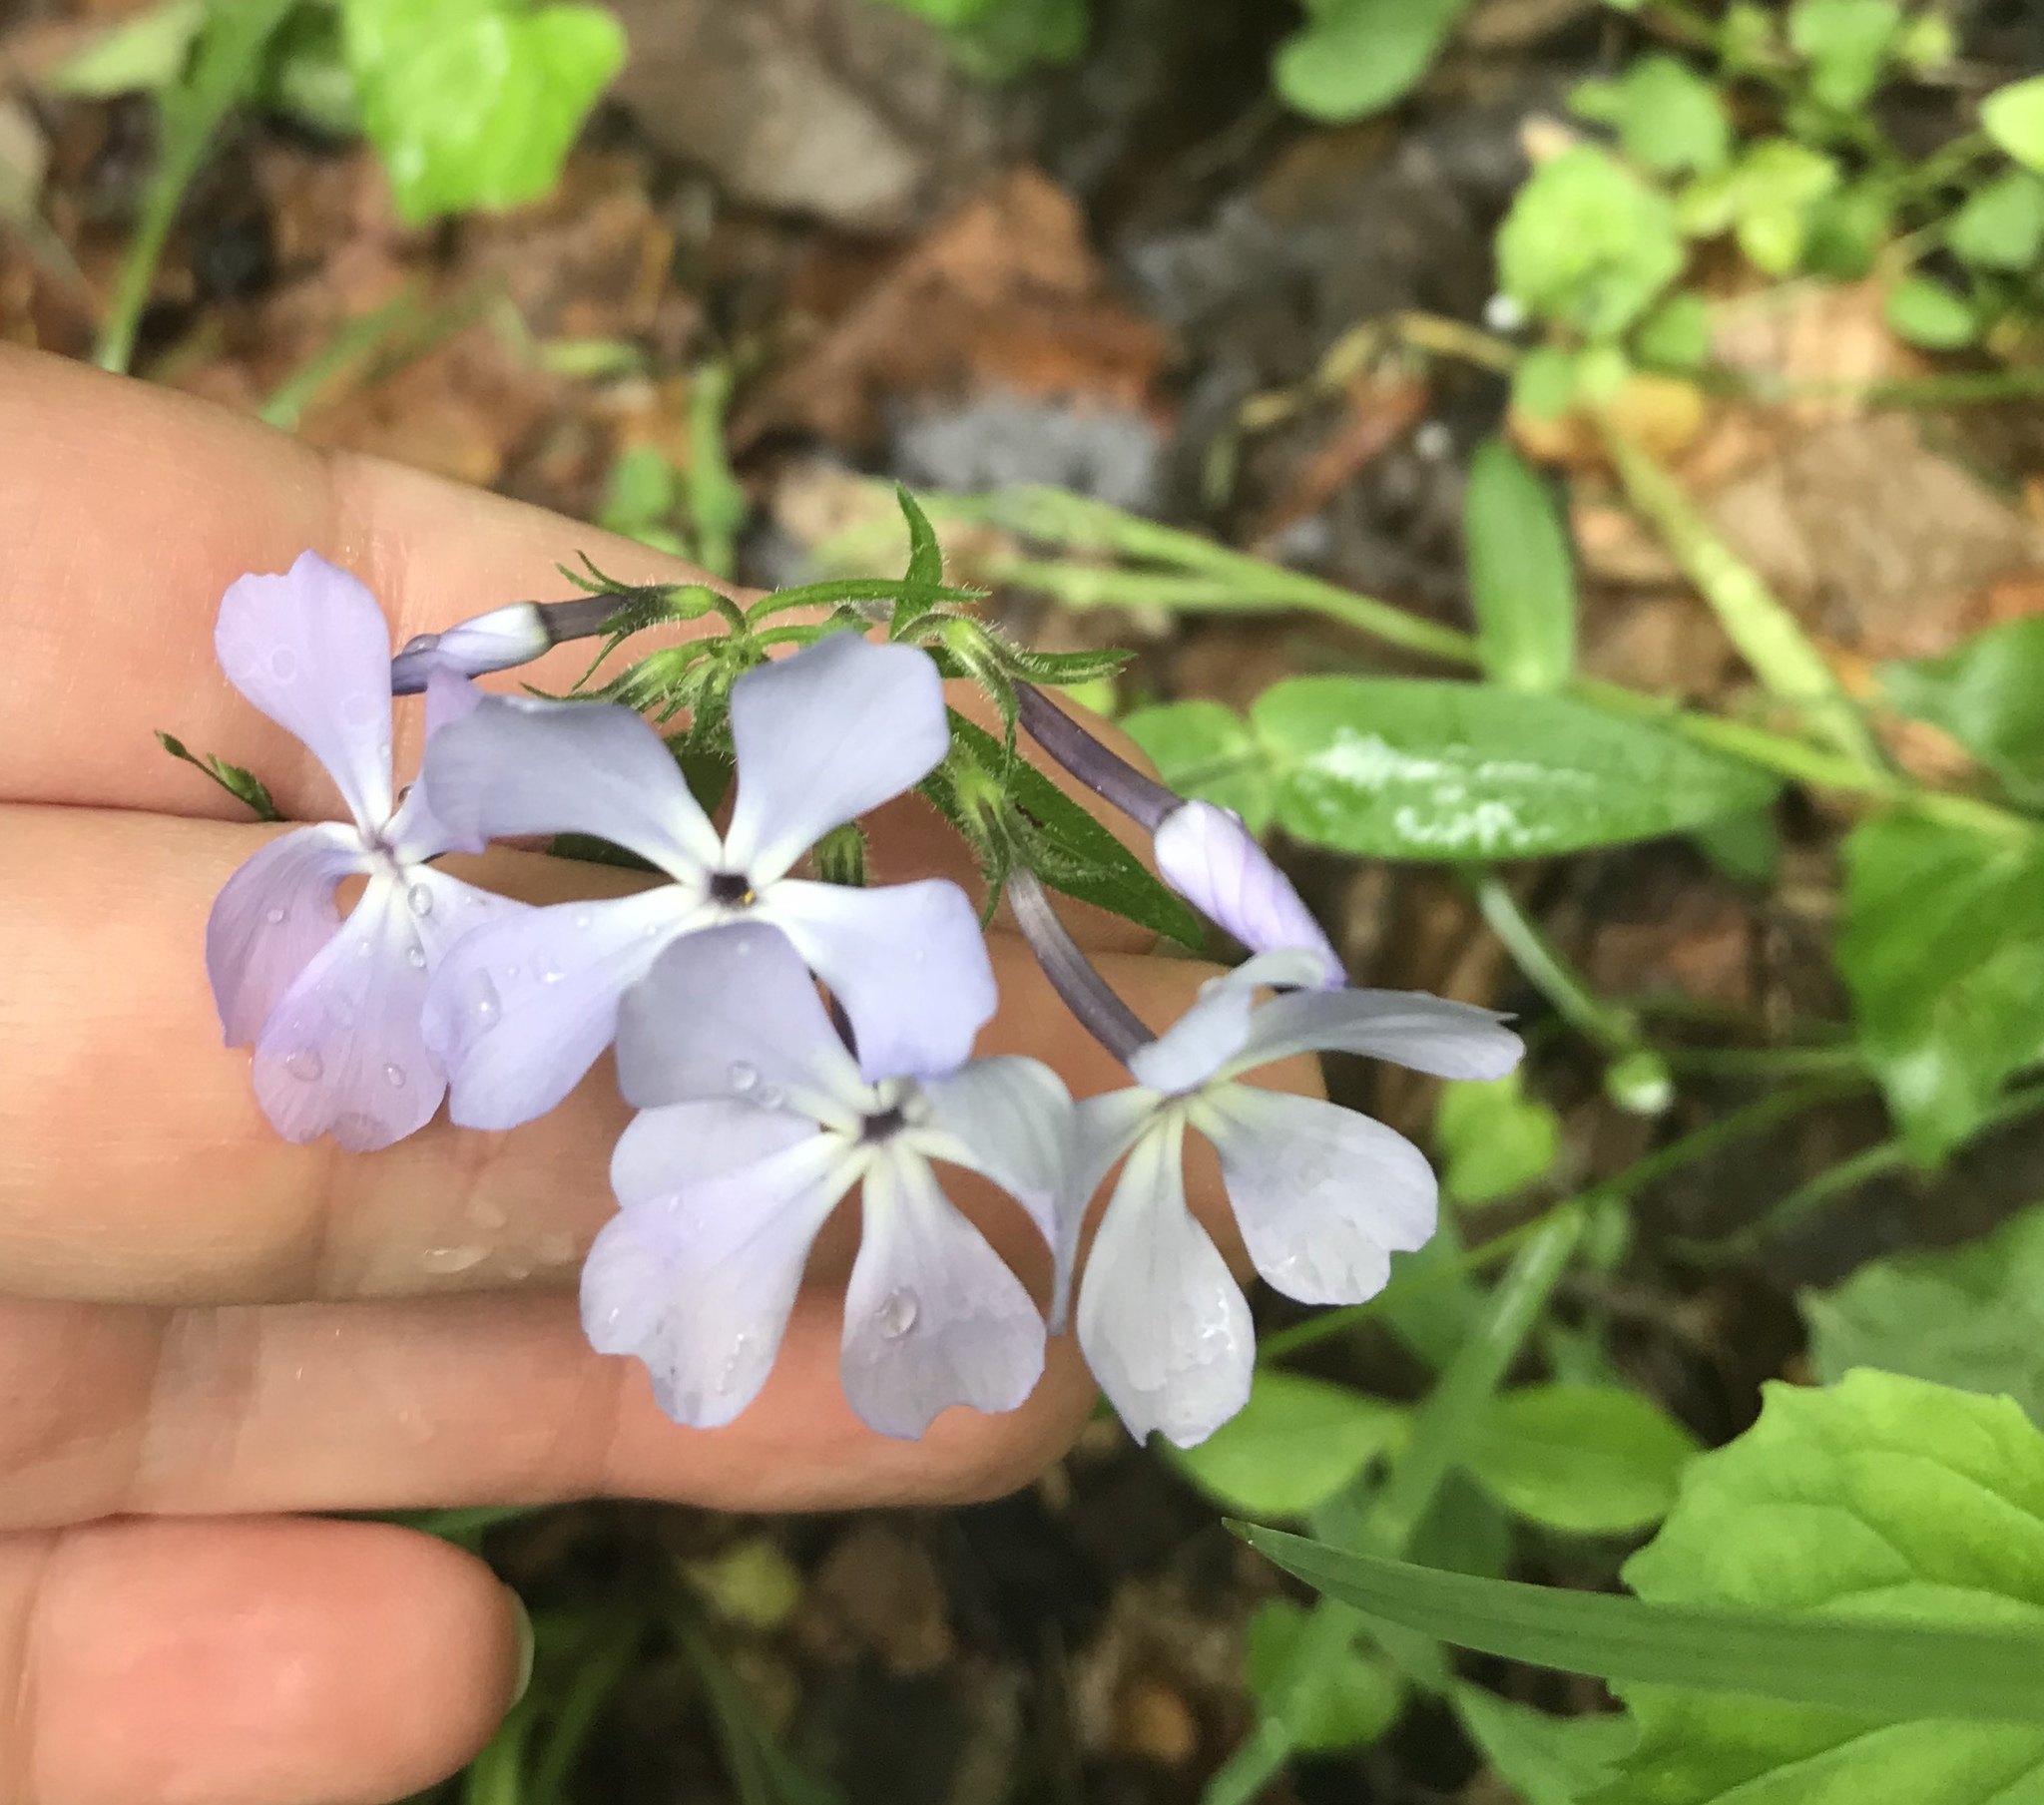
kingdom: Plantae
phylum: Tracheophyta
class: Magnoliopsida
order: Ericales
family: Polemoniaceae
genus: Phlox
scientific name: Phlox divaricata
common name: Blue phlox
